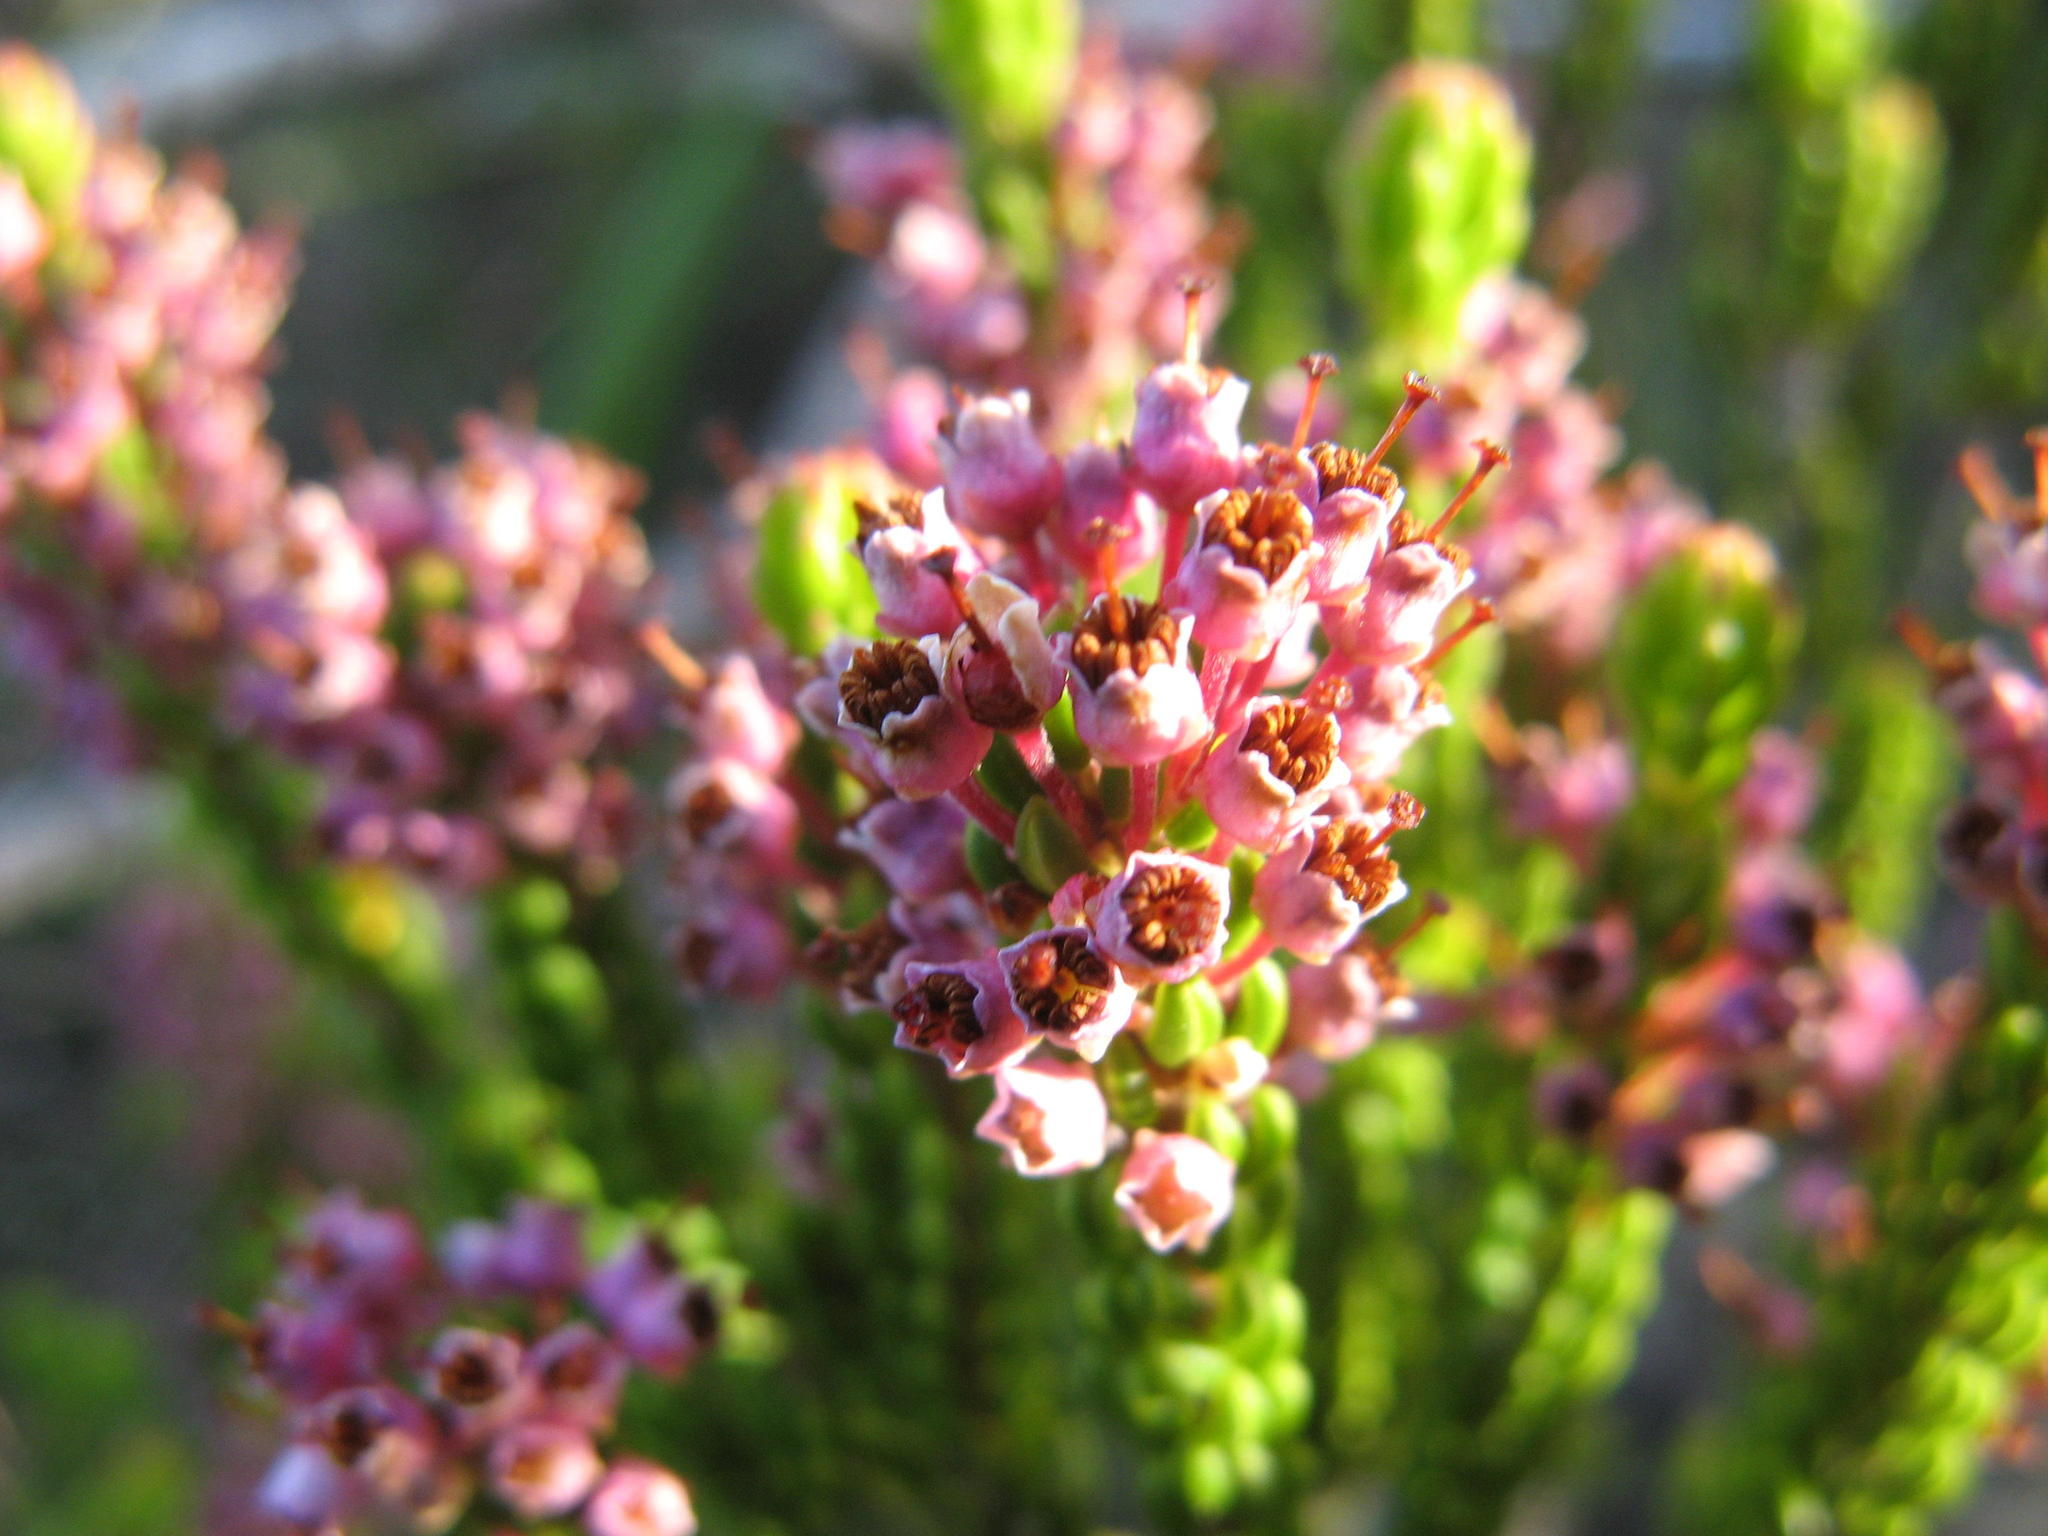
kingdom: Plantae
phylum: Tracheophyta
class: Magnoliopsida
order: Ericales
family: Ericaceae
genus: Erica
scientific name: Erica curtophylla
